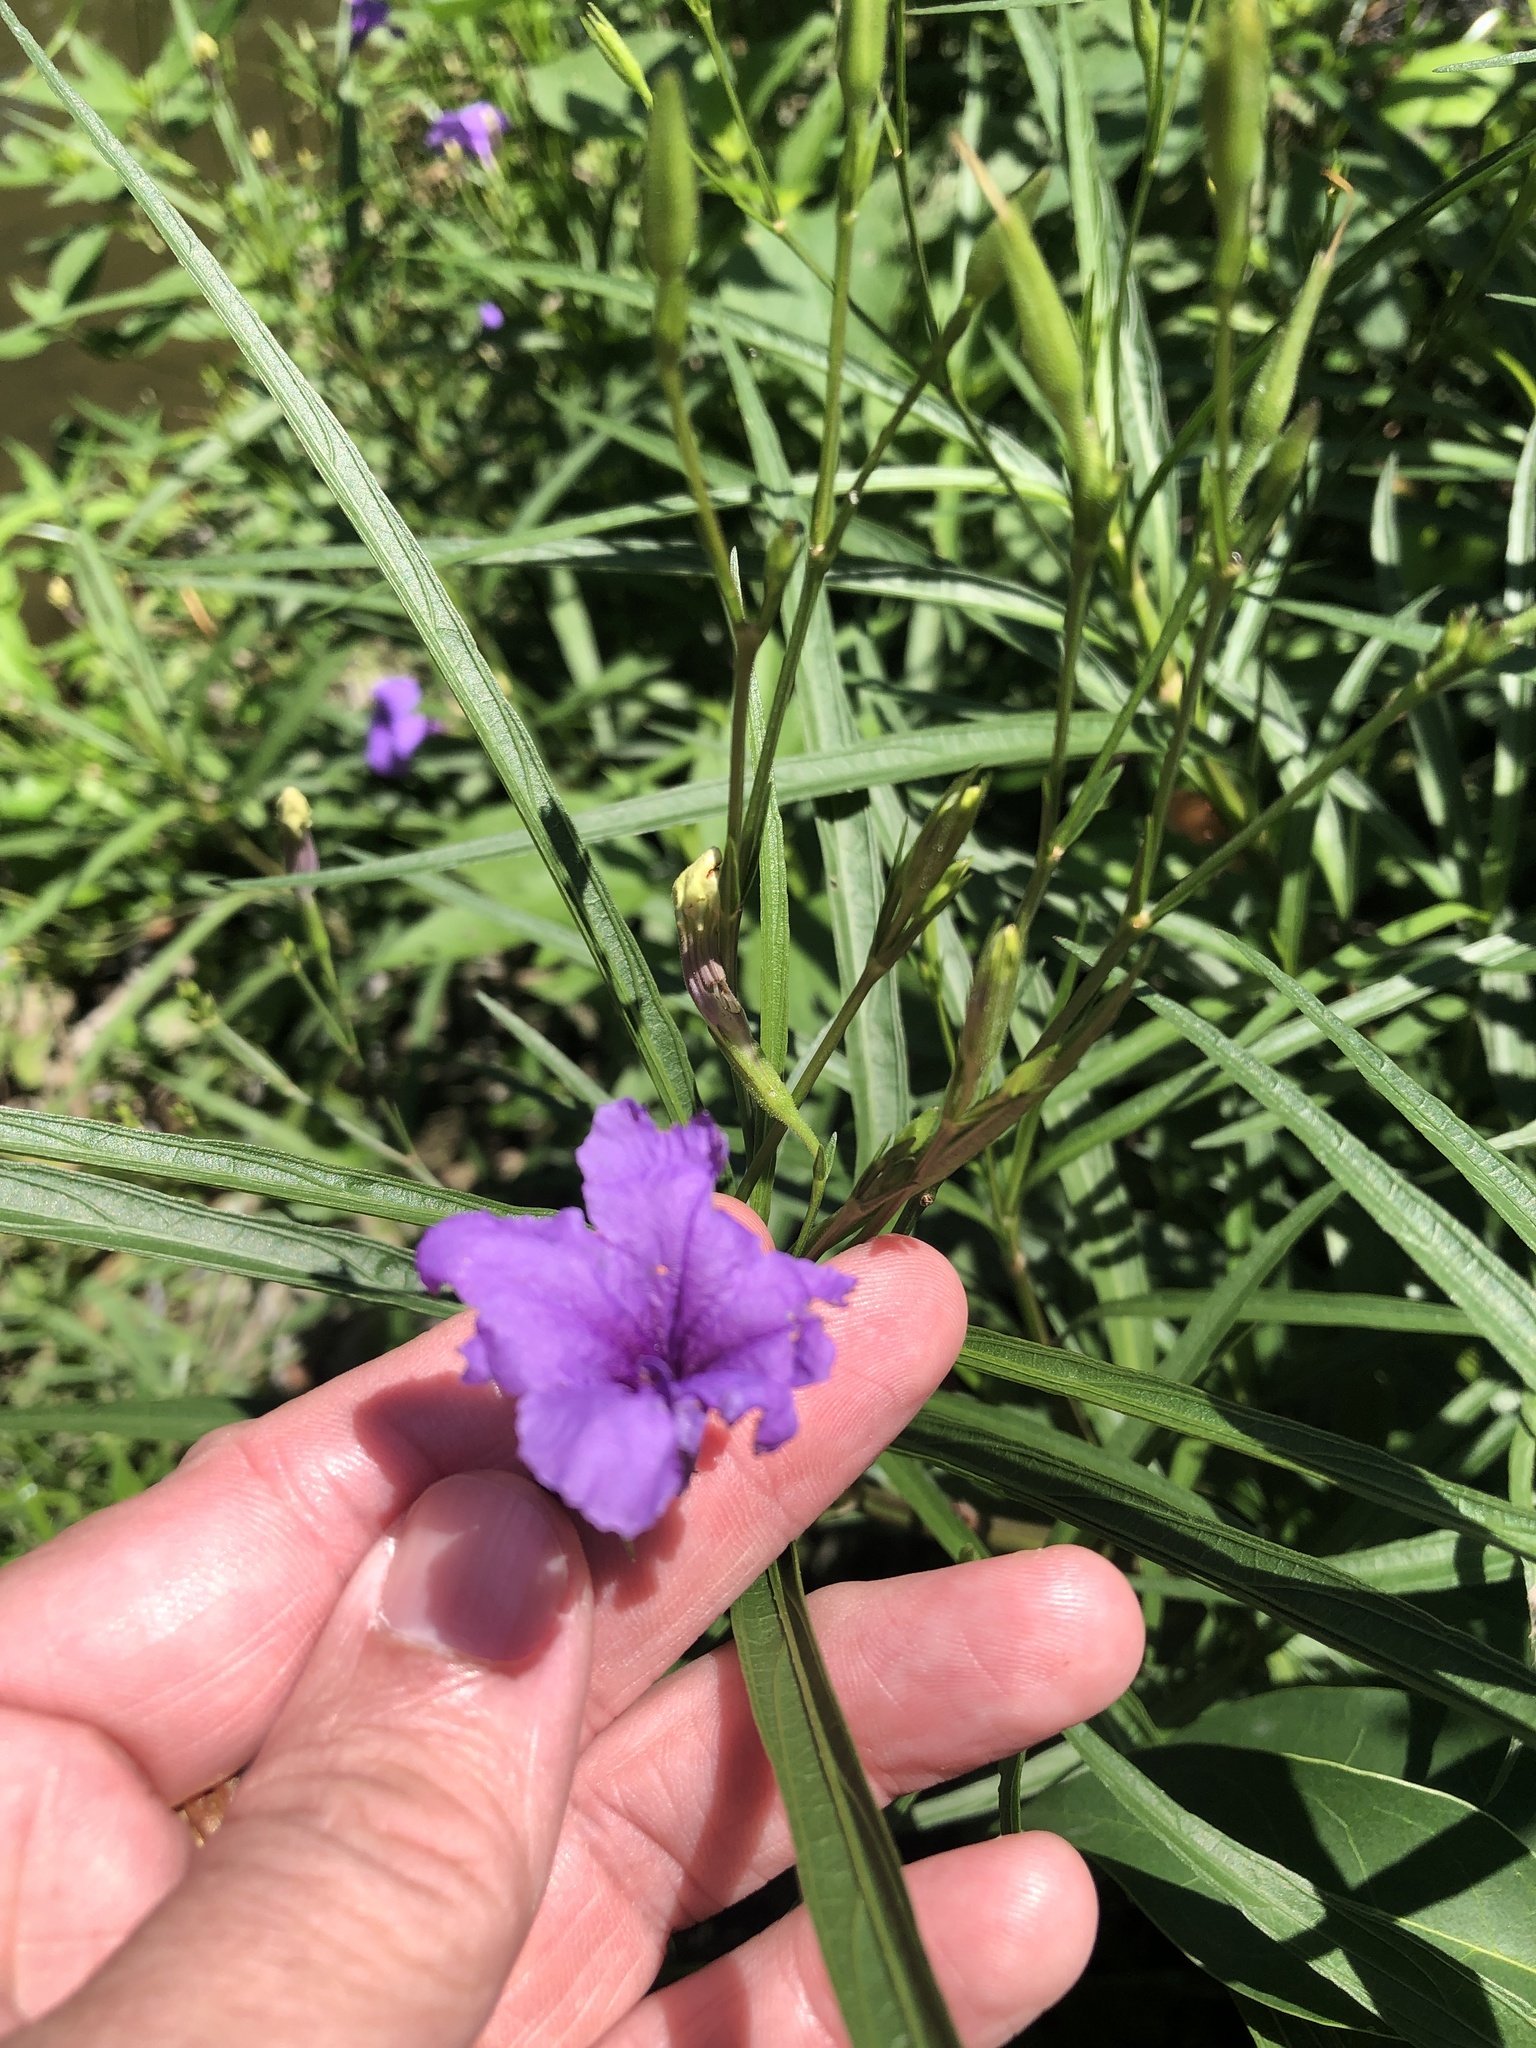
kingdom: Plantae
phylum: Tracheophyta
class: Magnoliopsida
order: Lamiales
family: Acanthaceae
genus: Ruellia
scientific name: Ruellia simplex
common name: Softseed wild petunia
